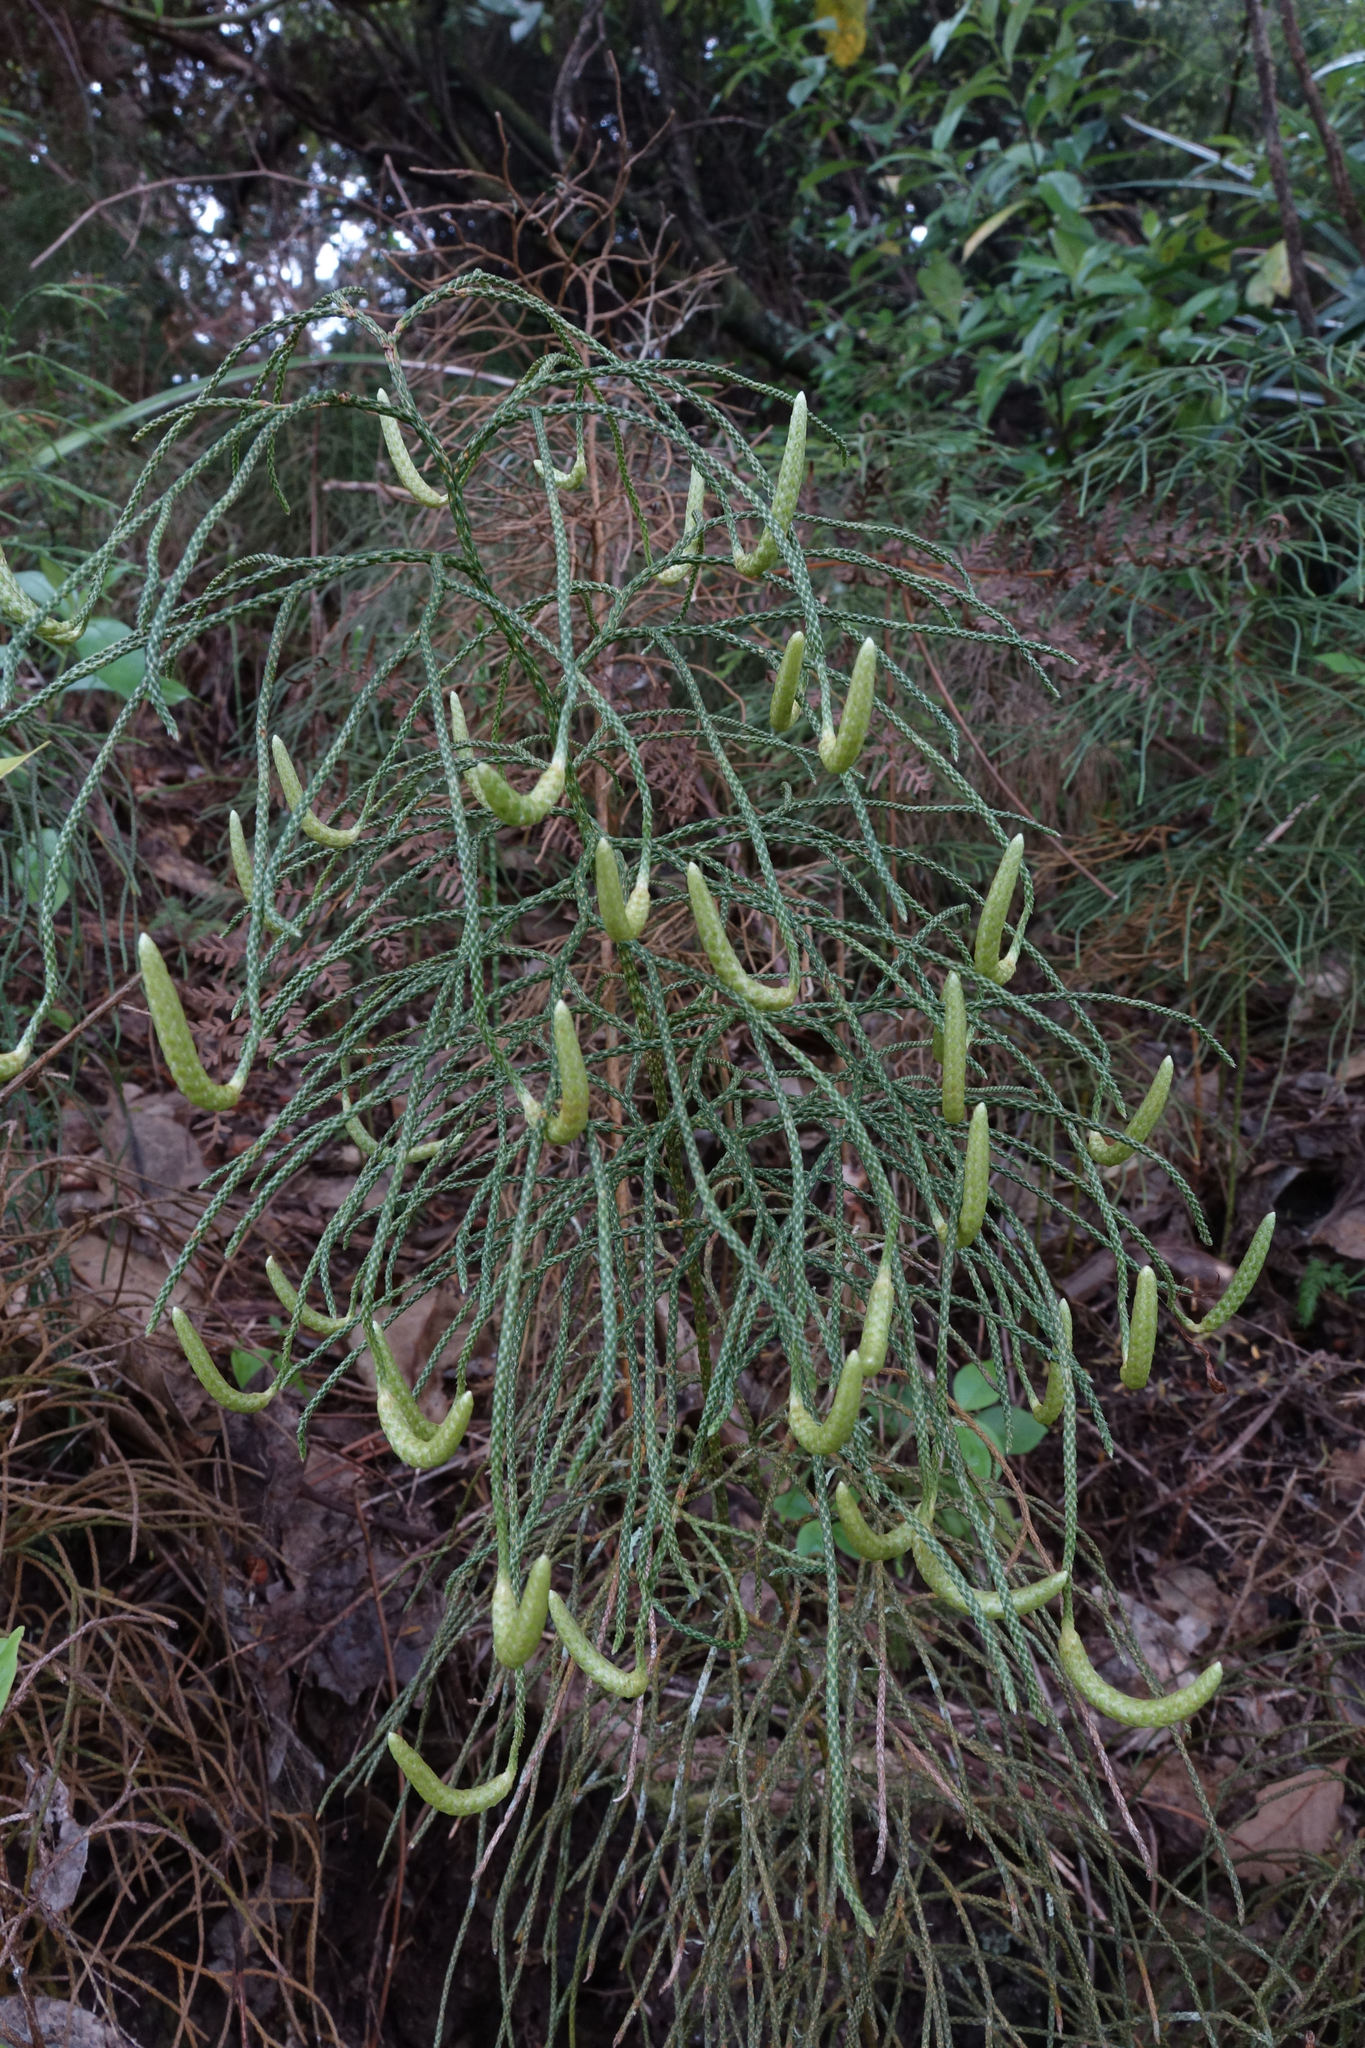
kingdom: Plantae
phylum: Tracheophyta
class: Lycopodiopsida
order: Lycopodiales
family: Lycopodiaceae
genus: Pseudolycopodium
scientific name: Pseudolycopodium densum
